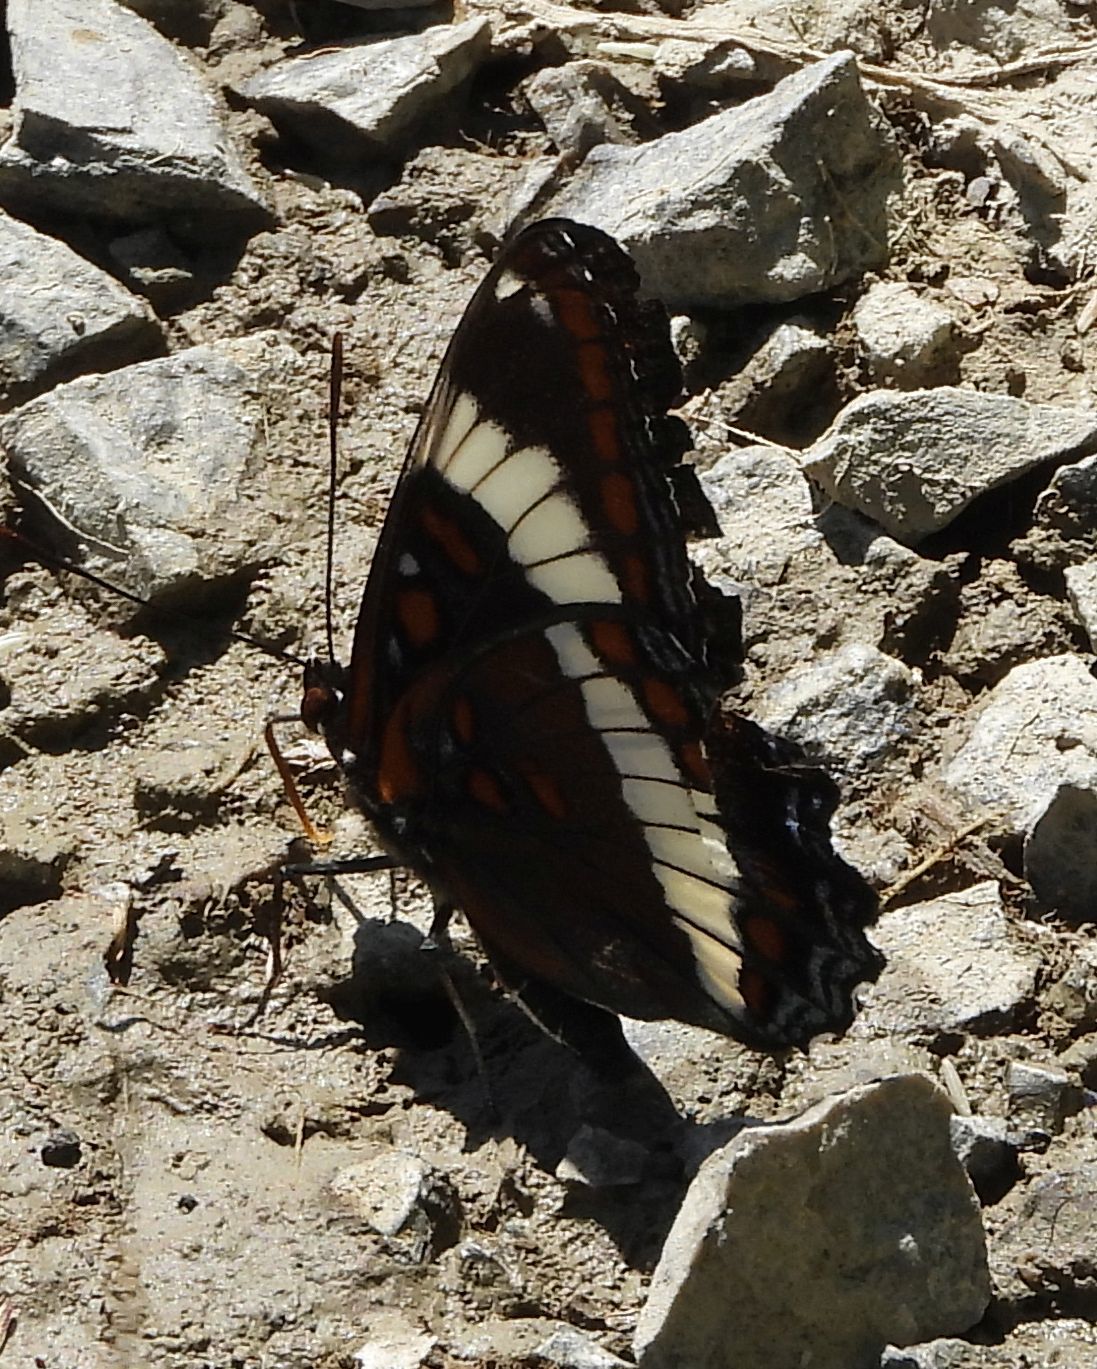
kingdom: Animalia
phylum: Arthropoda
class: Insecta
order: Lepidoptera
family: Nymphalidae
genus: Limenitis
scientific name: Limenitis arthemis
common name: Red-spotted admiral
